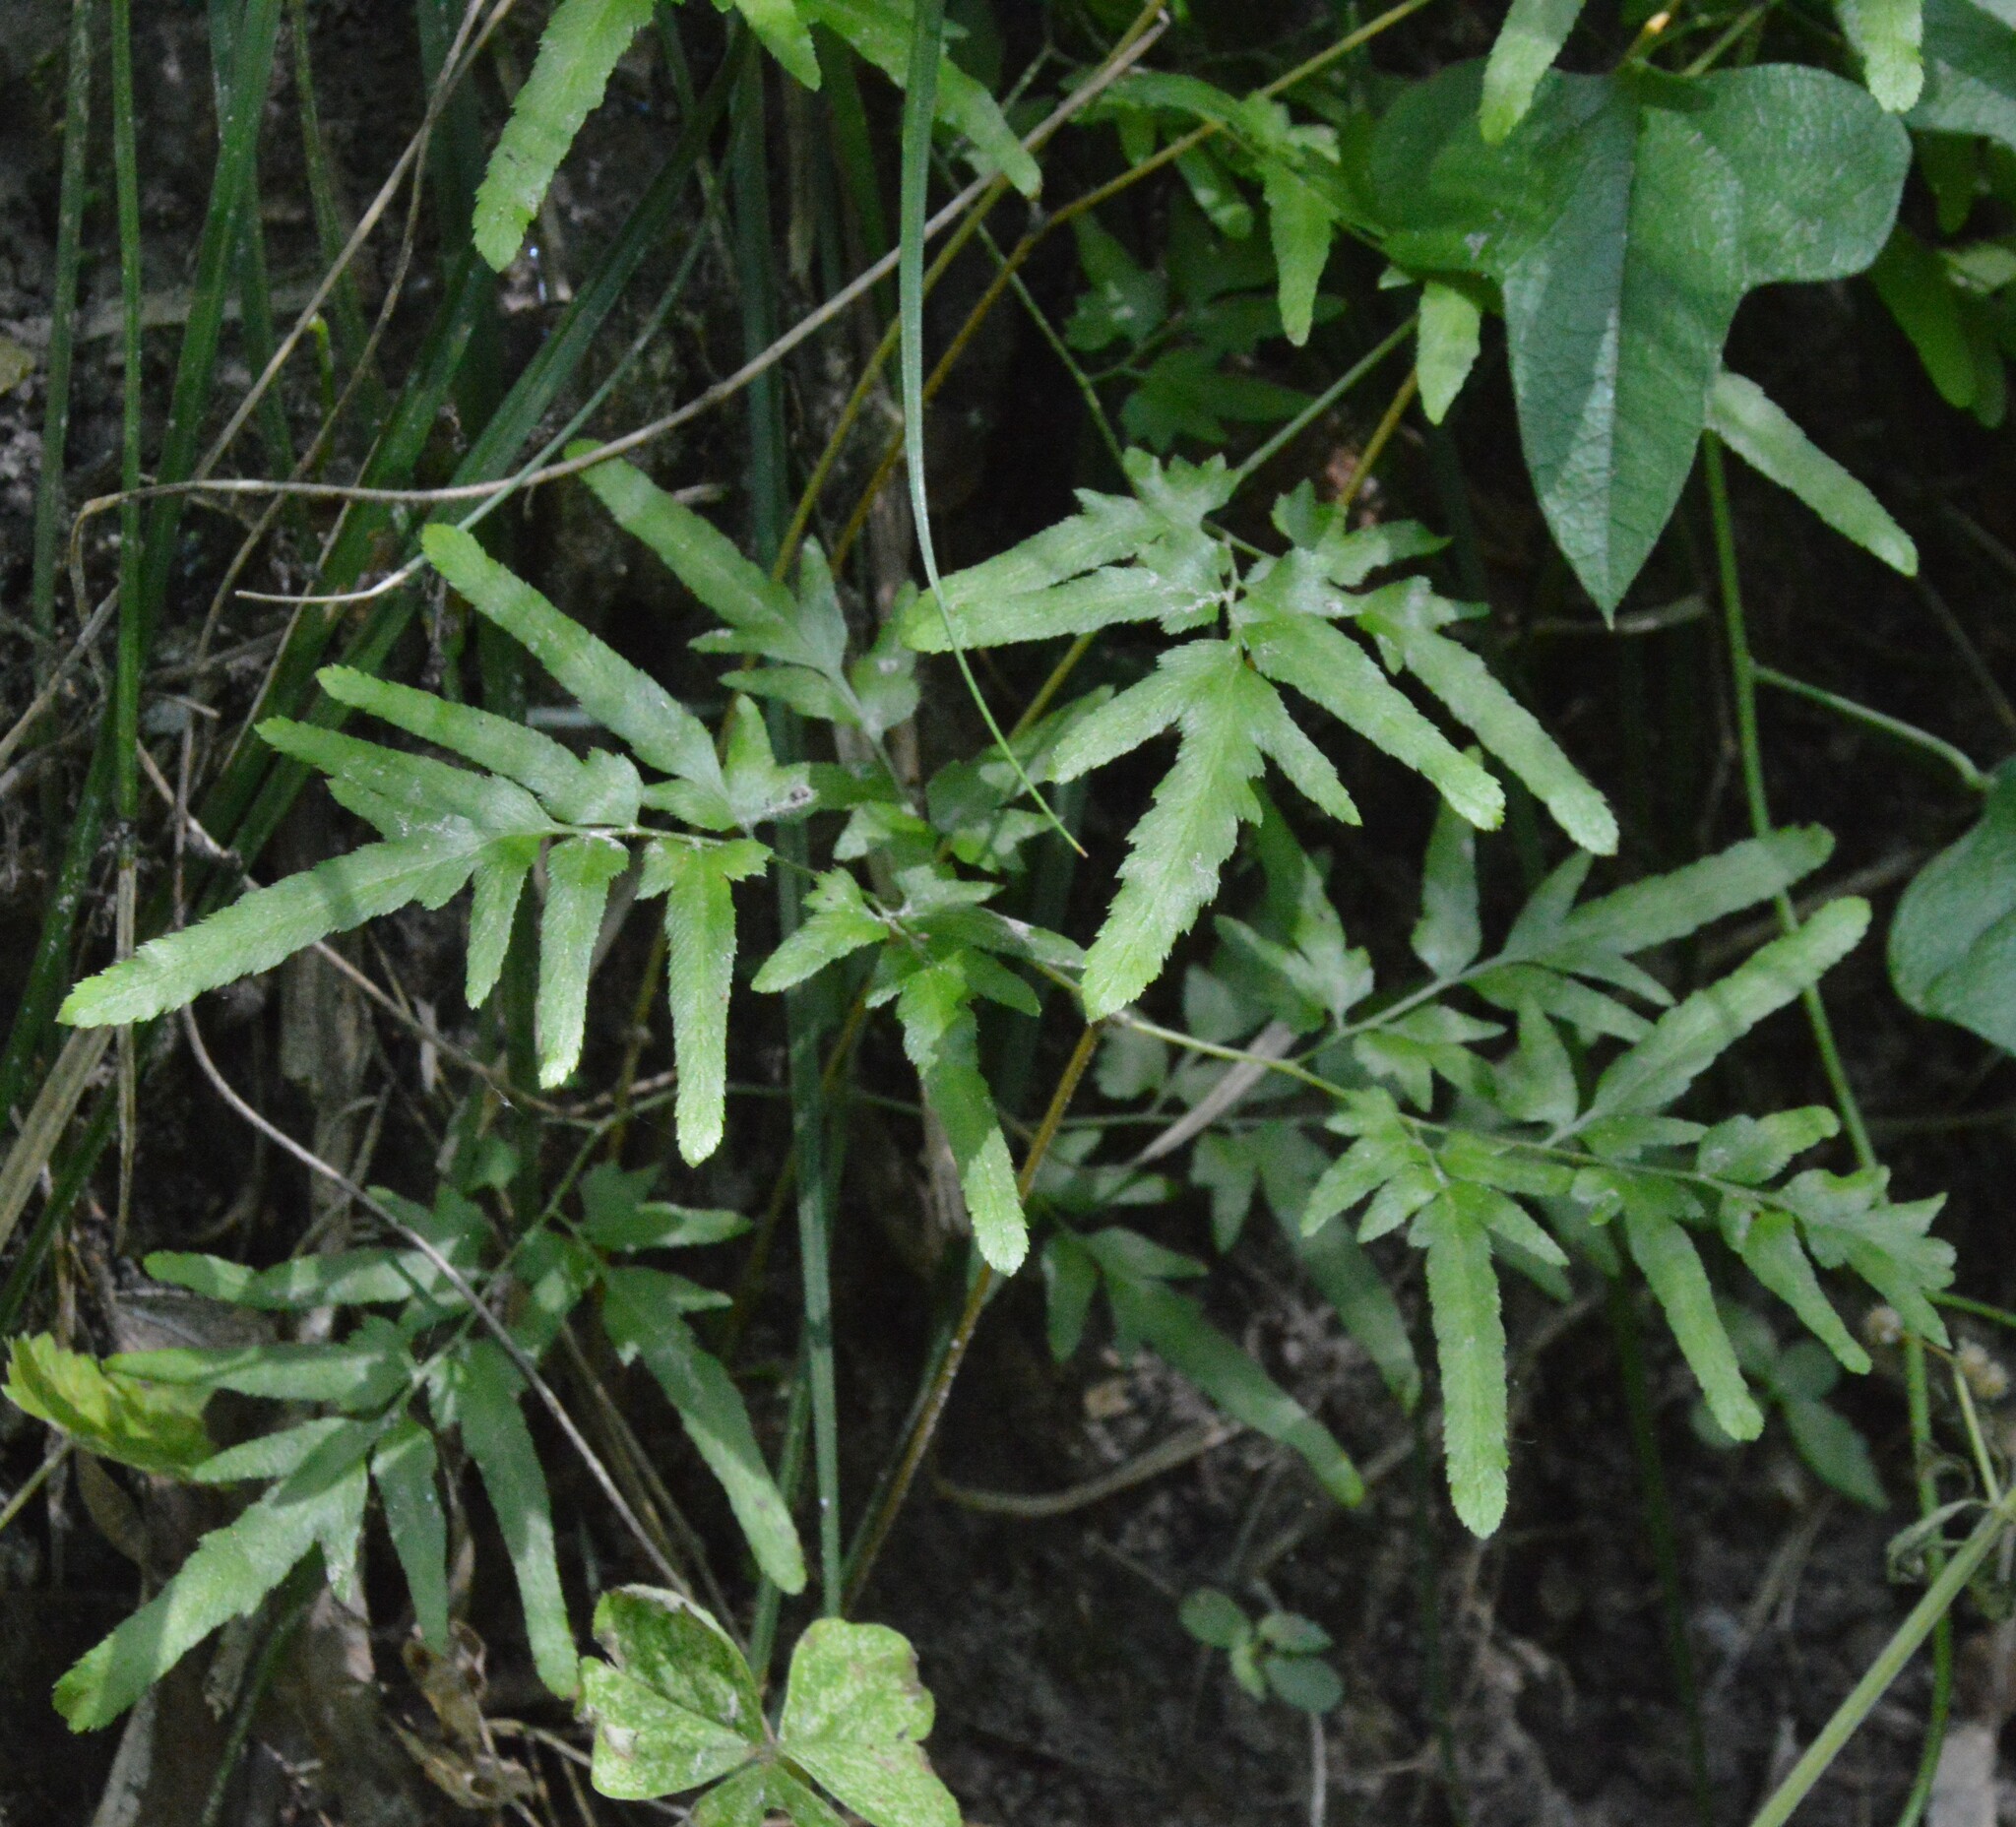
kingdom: Plantae
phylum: Tracheophyta
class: Polypodiopsida
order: Schizaeales
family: Lygodiaceae
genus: Lygodium
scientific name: Lygodium japonicum
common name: Japanese climbing fern
